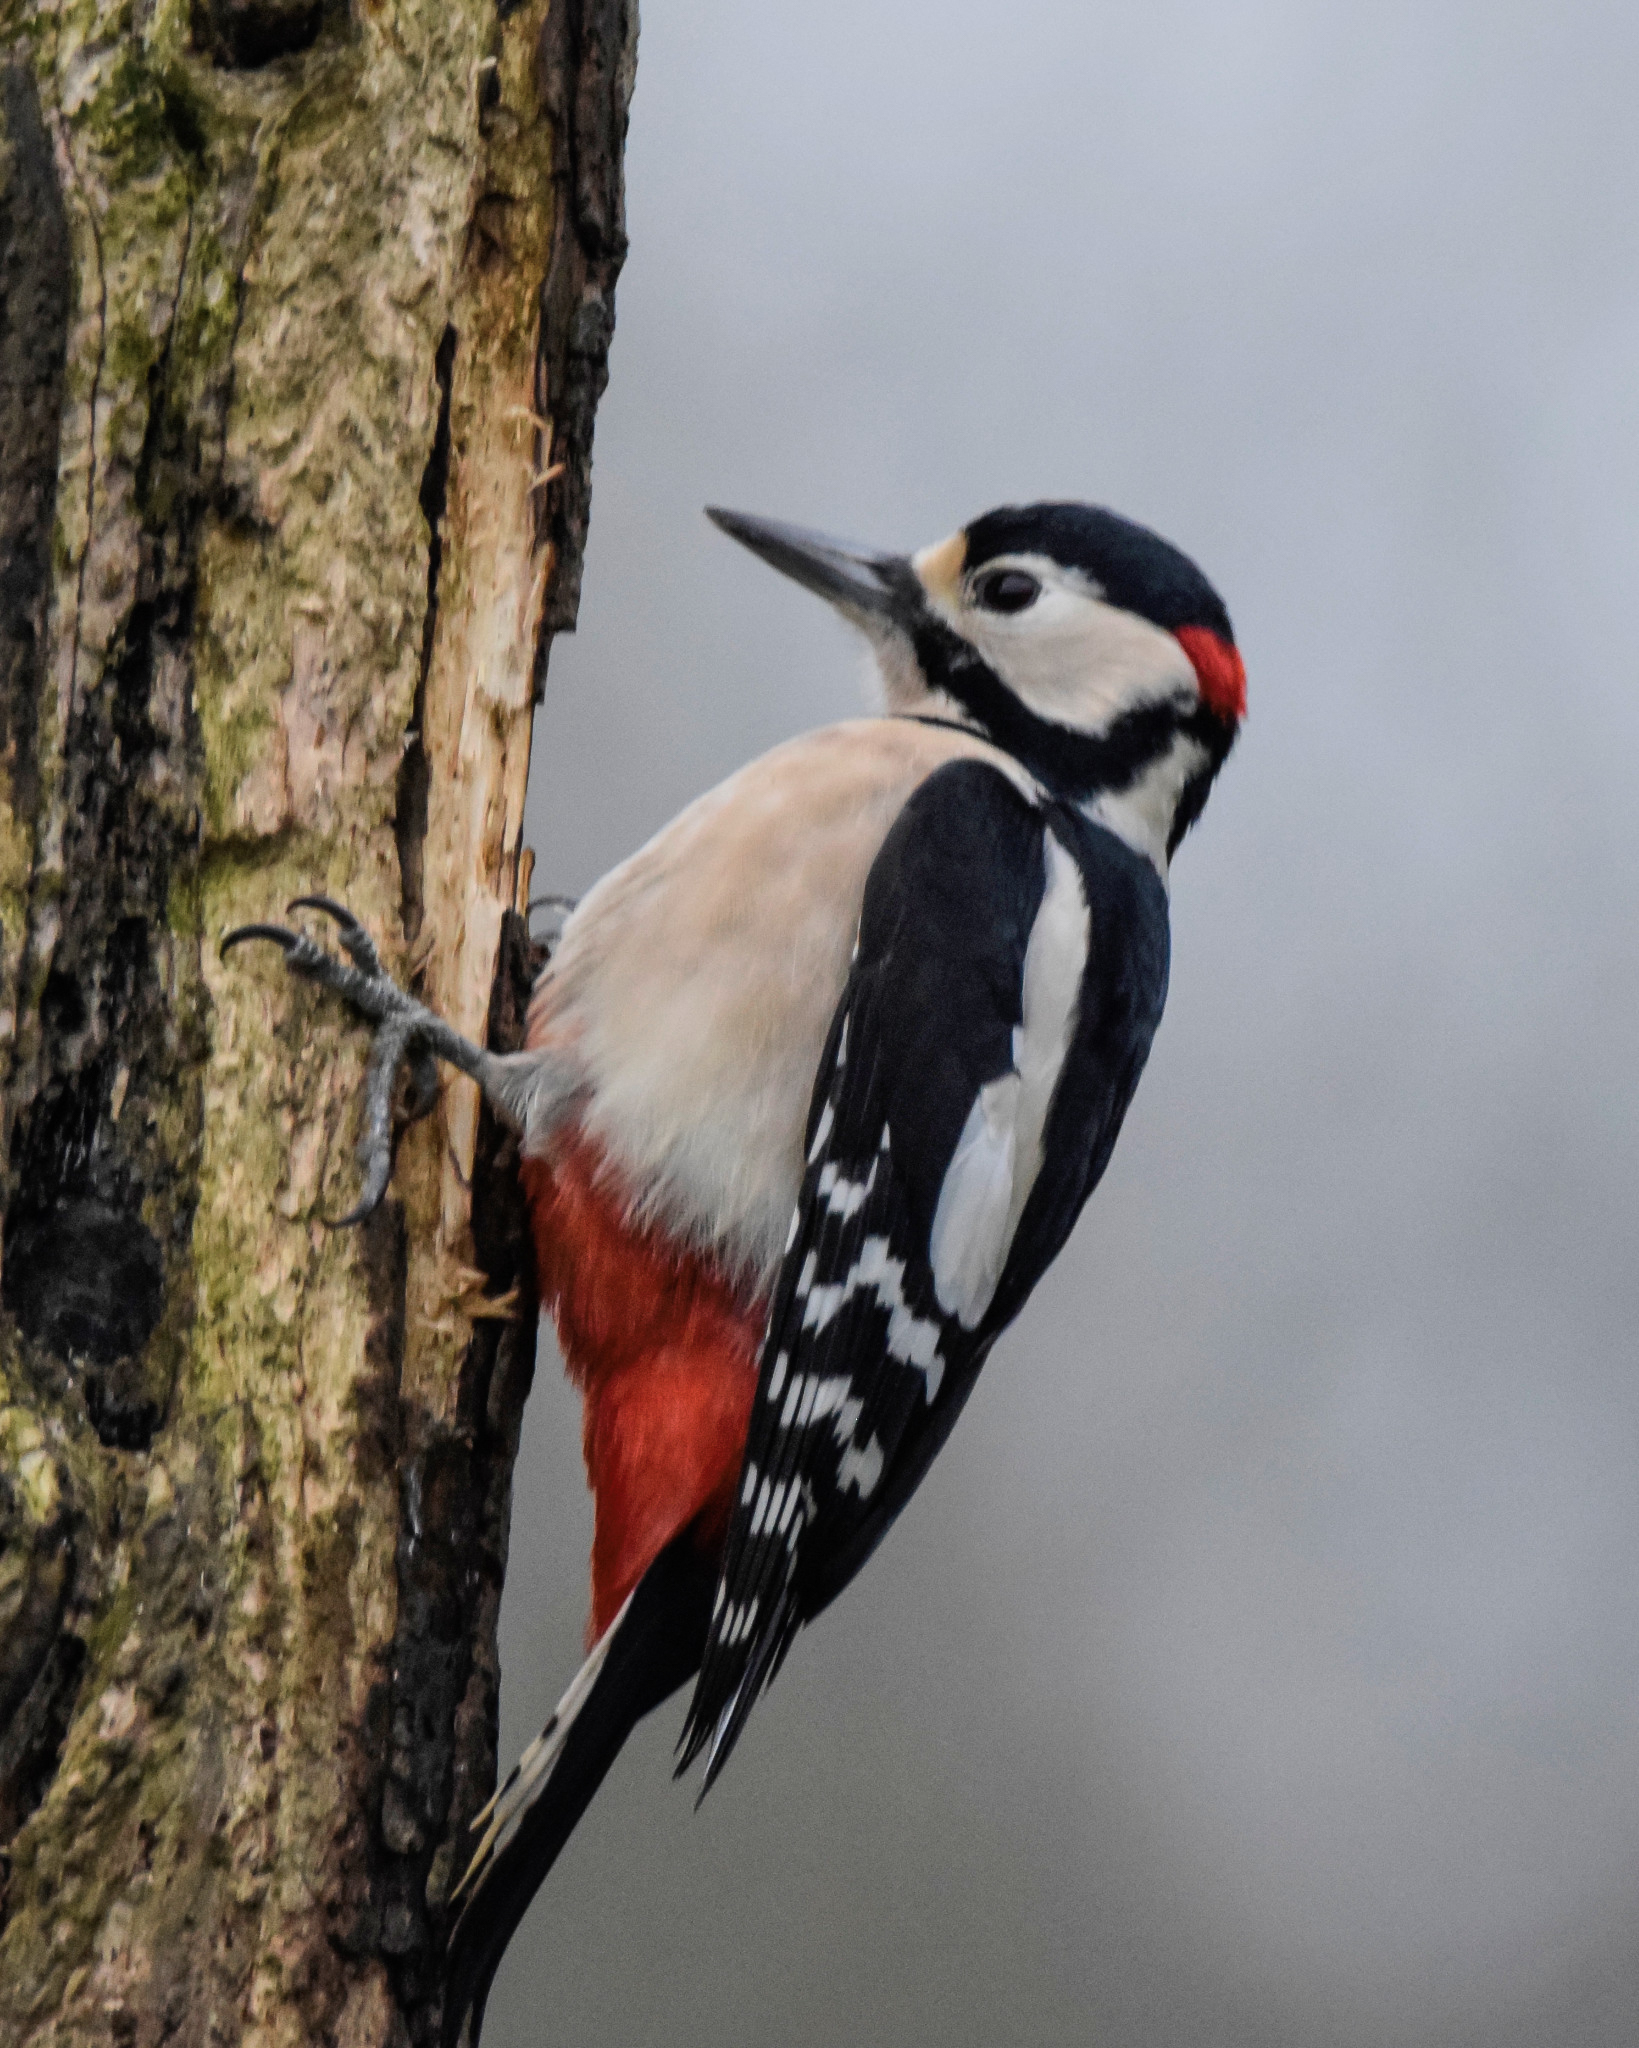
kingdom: Animalia
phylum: Chordata
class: Aves
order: Piciformes
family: Picidae
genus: Dendrocopos
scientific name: Dendrocopos major
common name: Great spotted woodpecker
